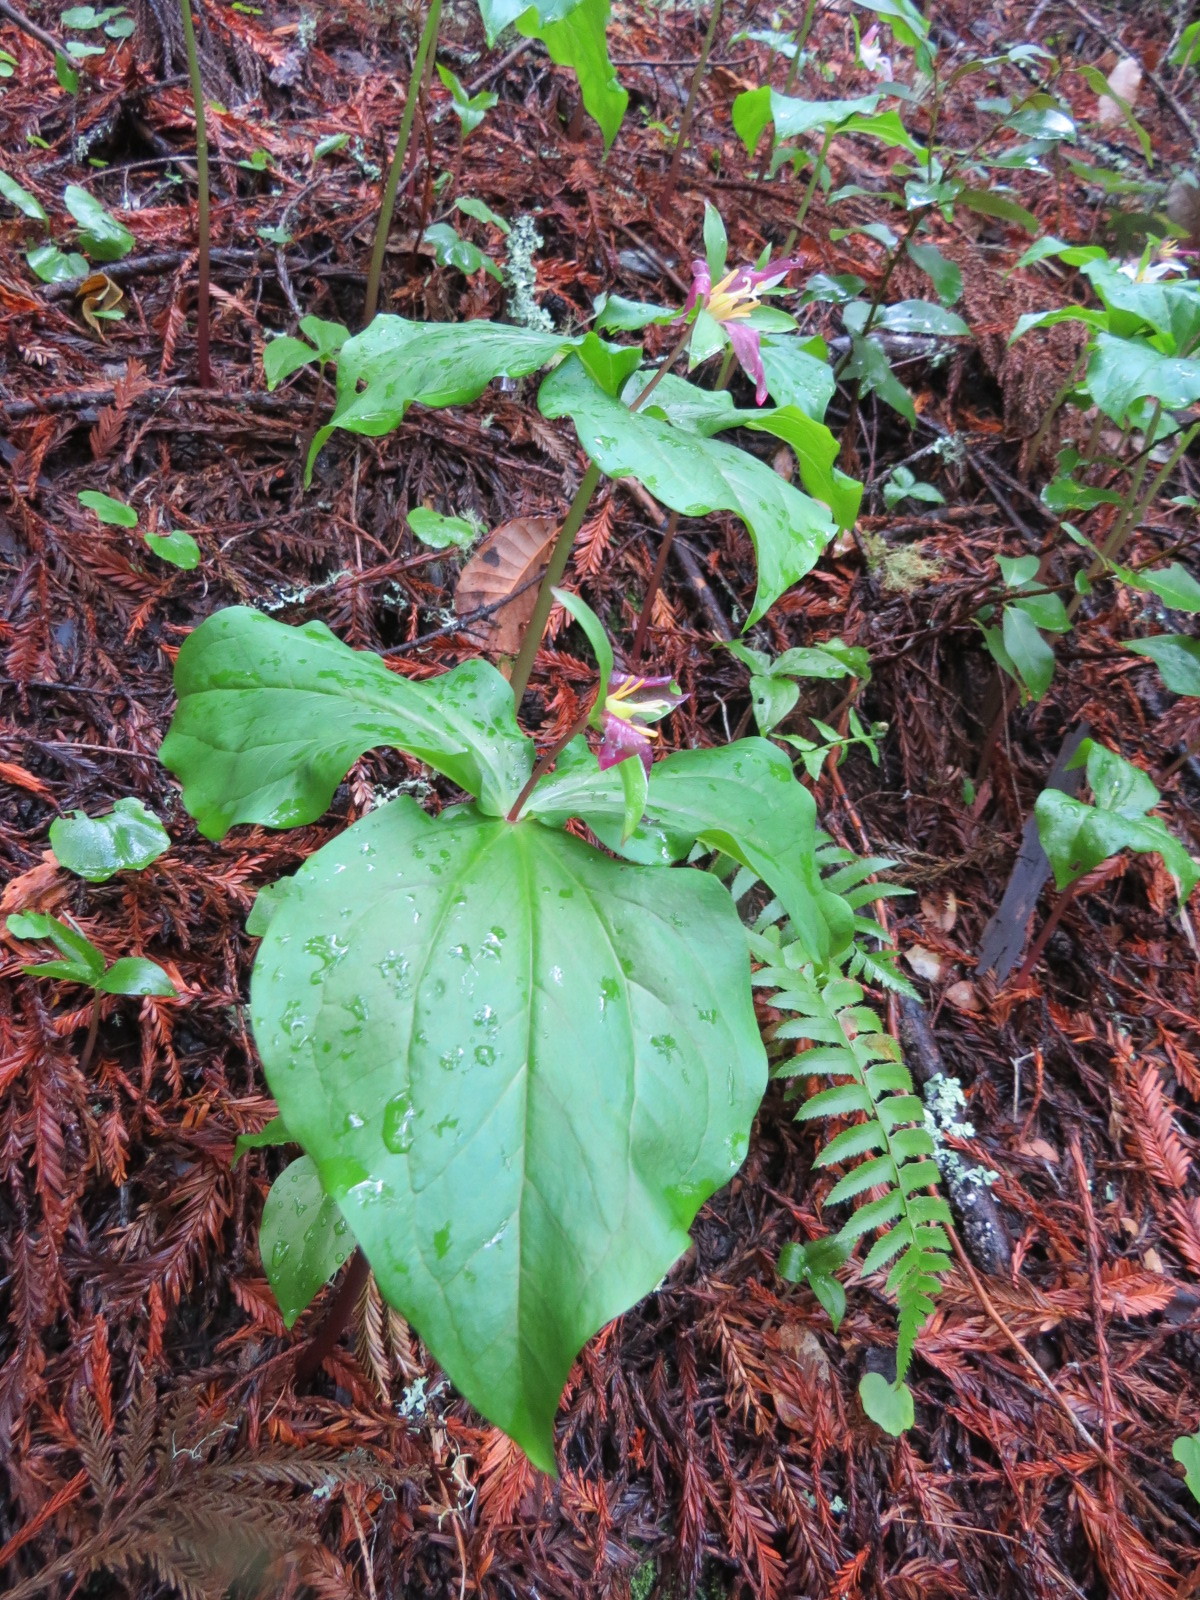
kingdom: Plantae
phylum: Tracheophyta
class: Liliopsida
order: Liliales
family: Melanthiaceae
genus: Trillium
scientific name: Trillium ovatum
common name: Pacific trillium
